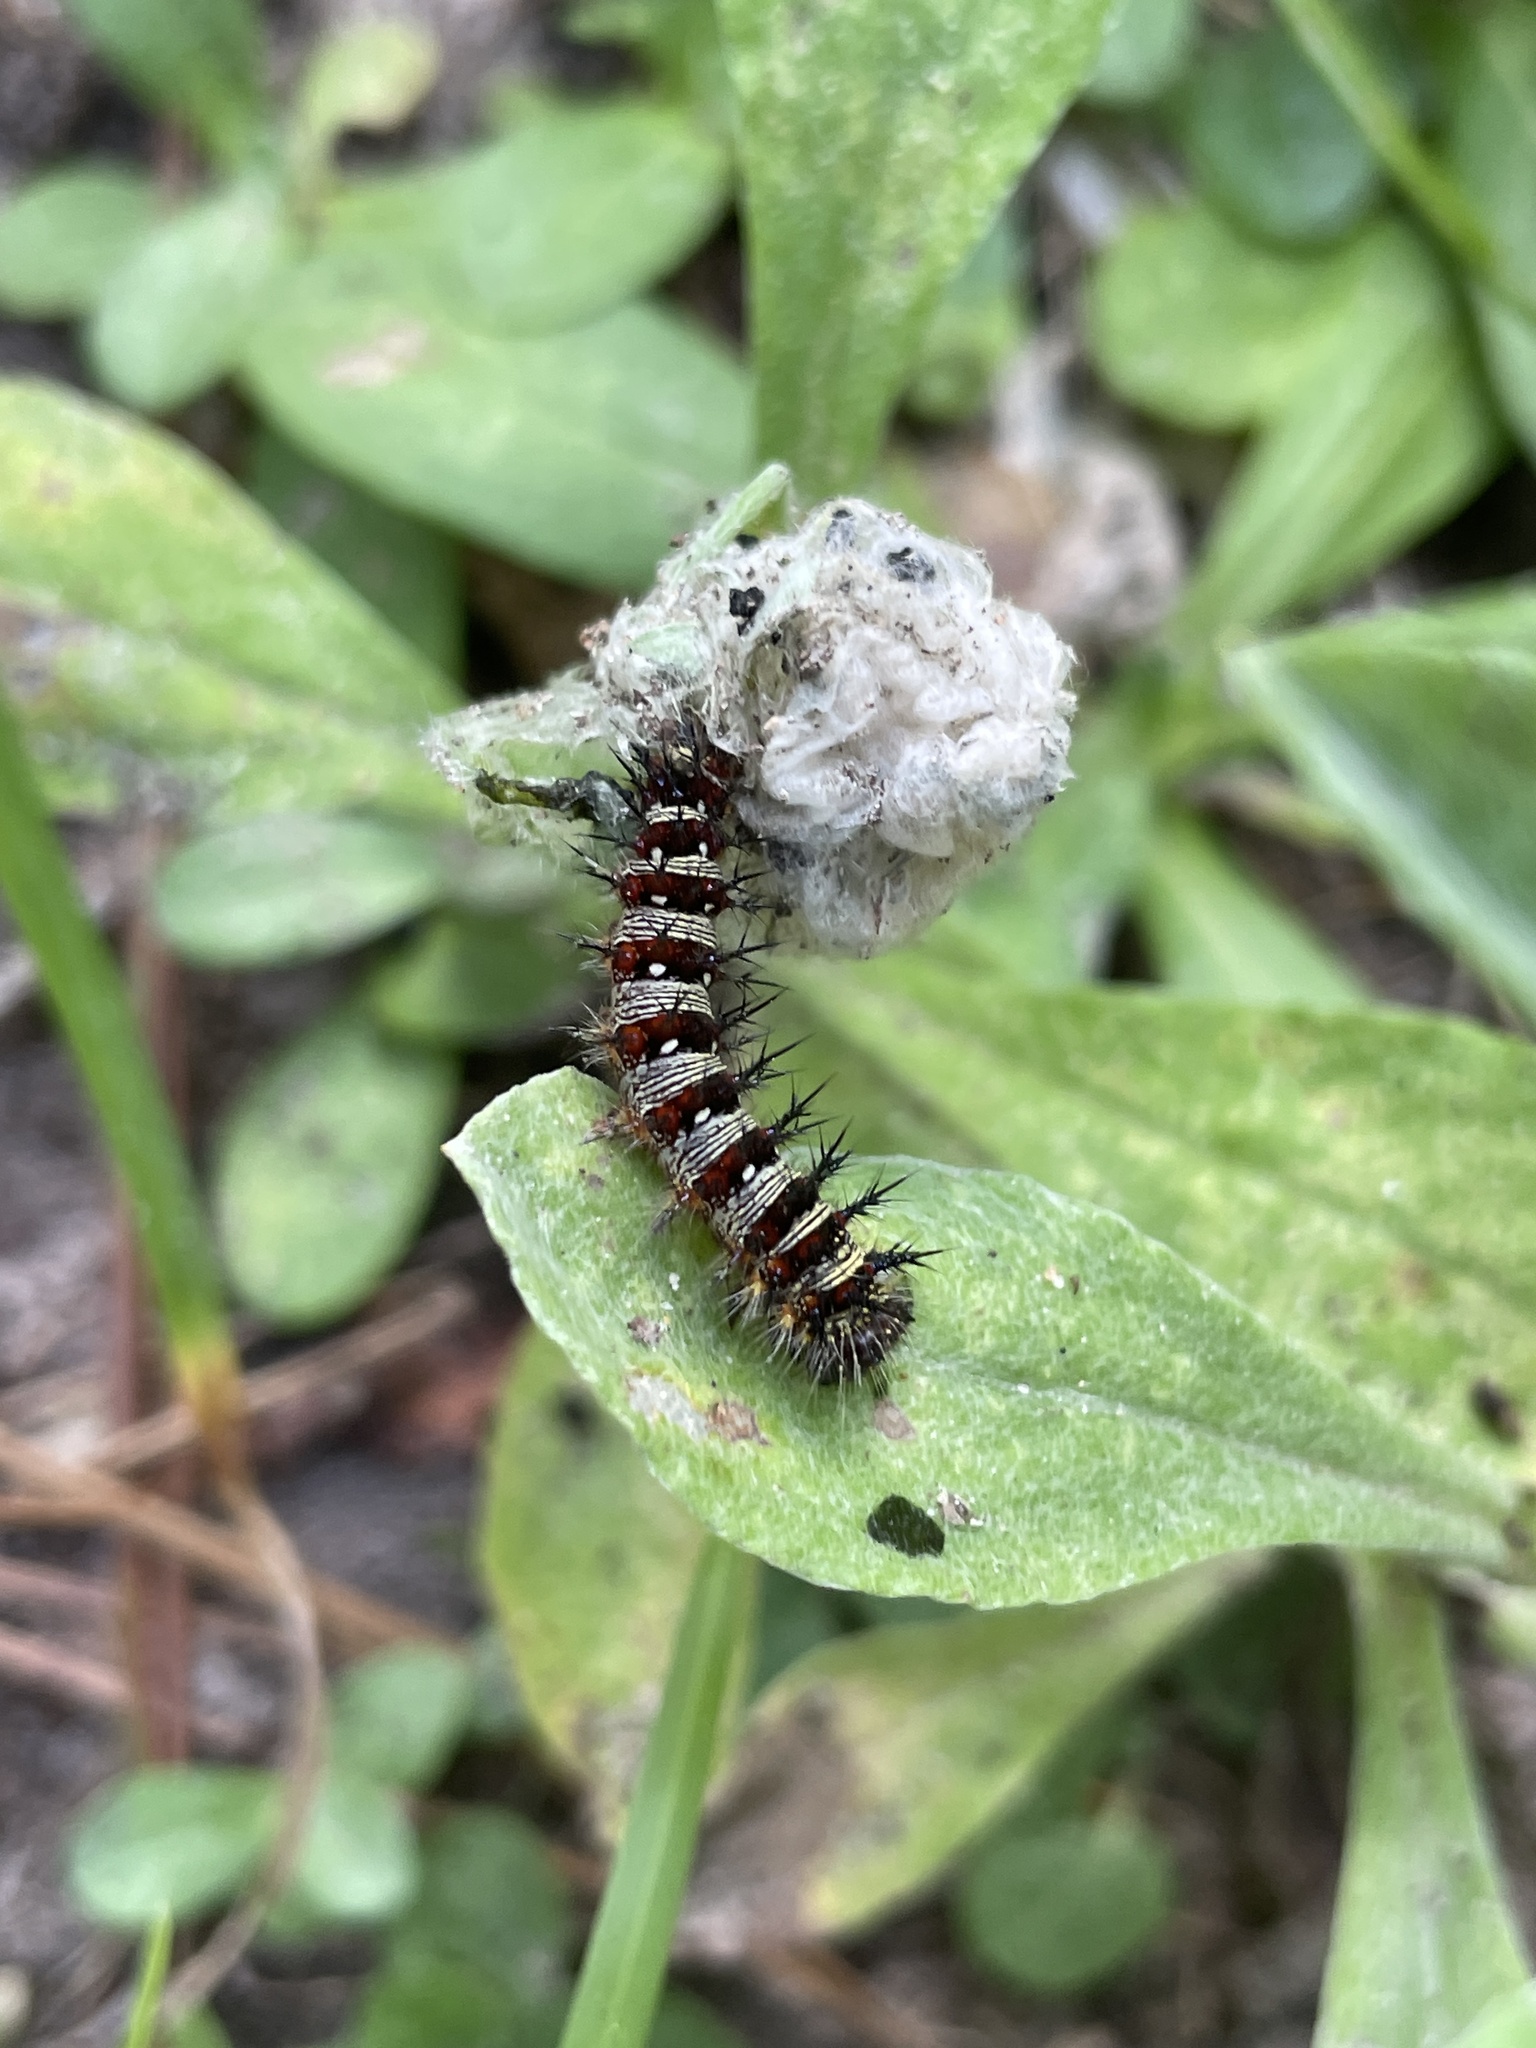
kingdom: Animalia
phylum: Arthropoda
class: Insecta
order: Lepidoptera
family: Nymphalidae
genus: Vanessa
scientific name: Vanessa virginiensis
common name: American lady
